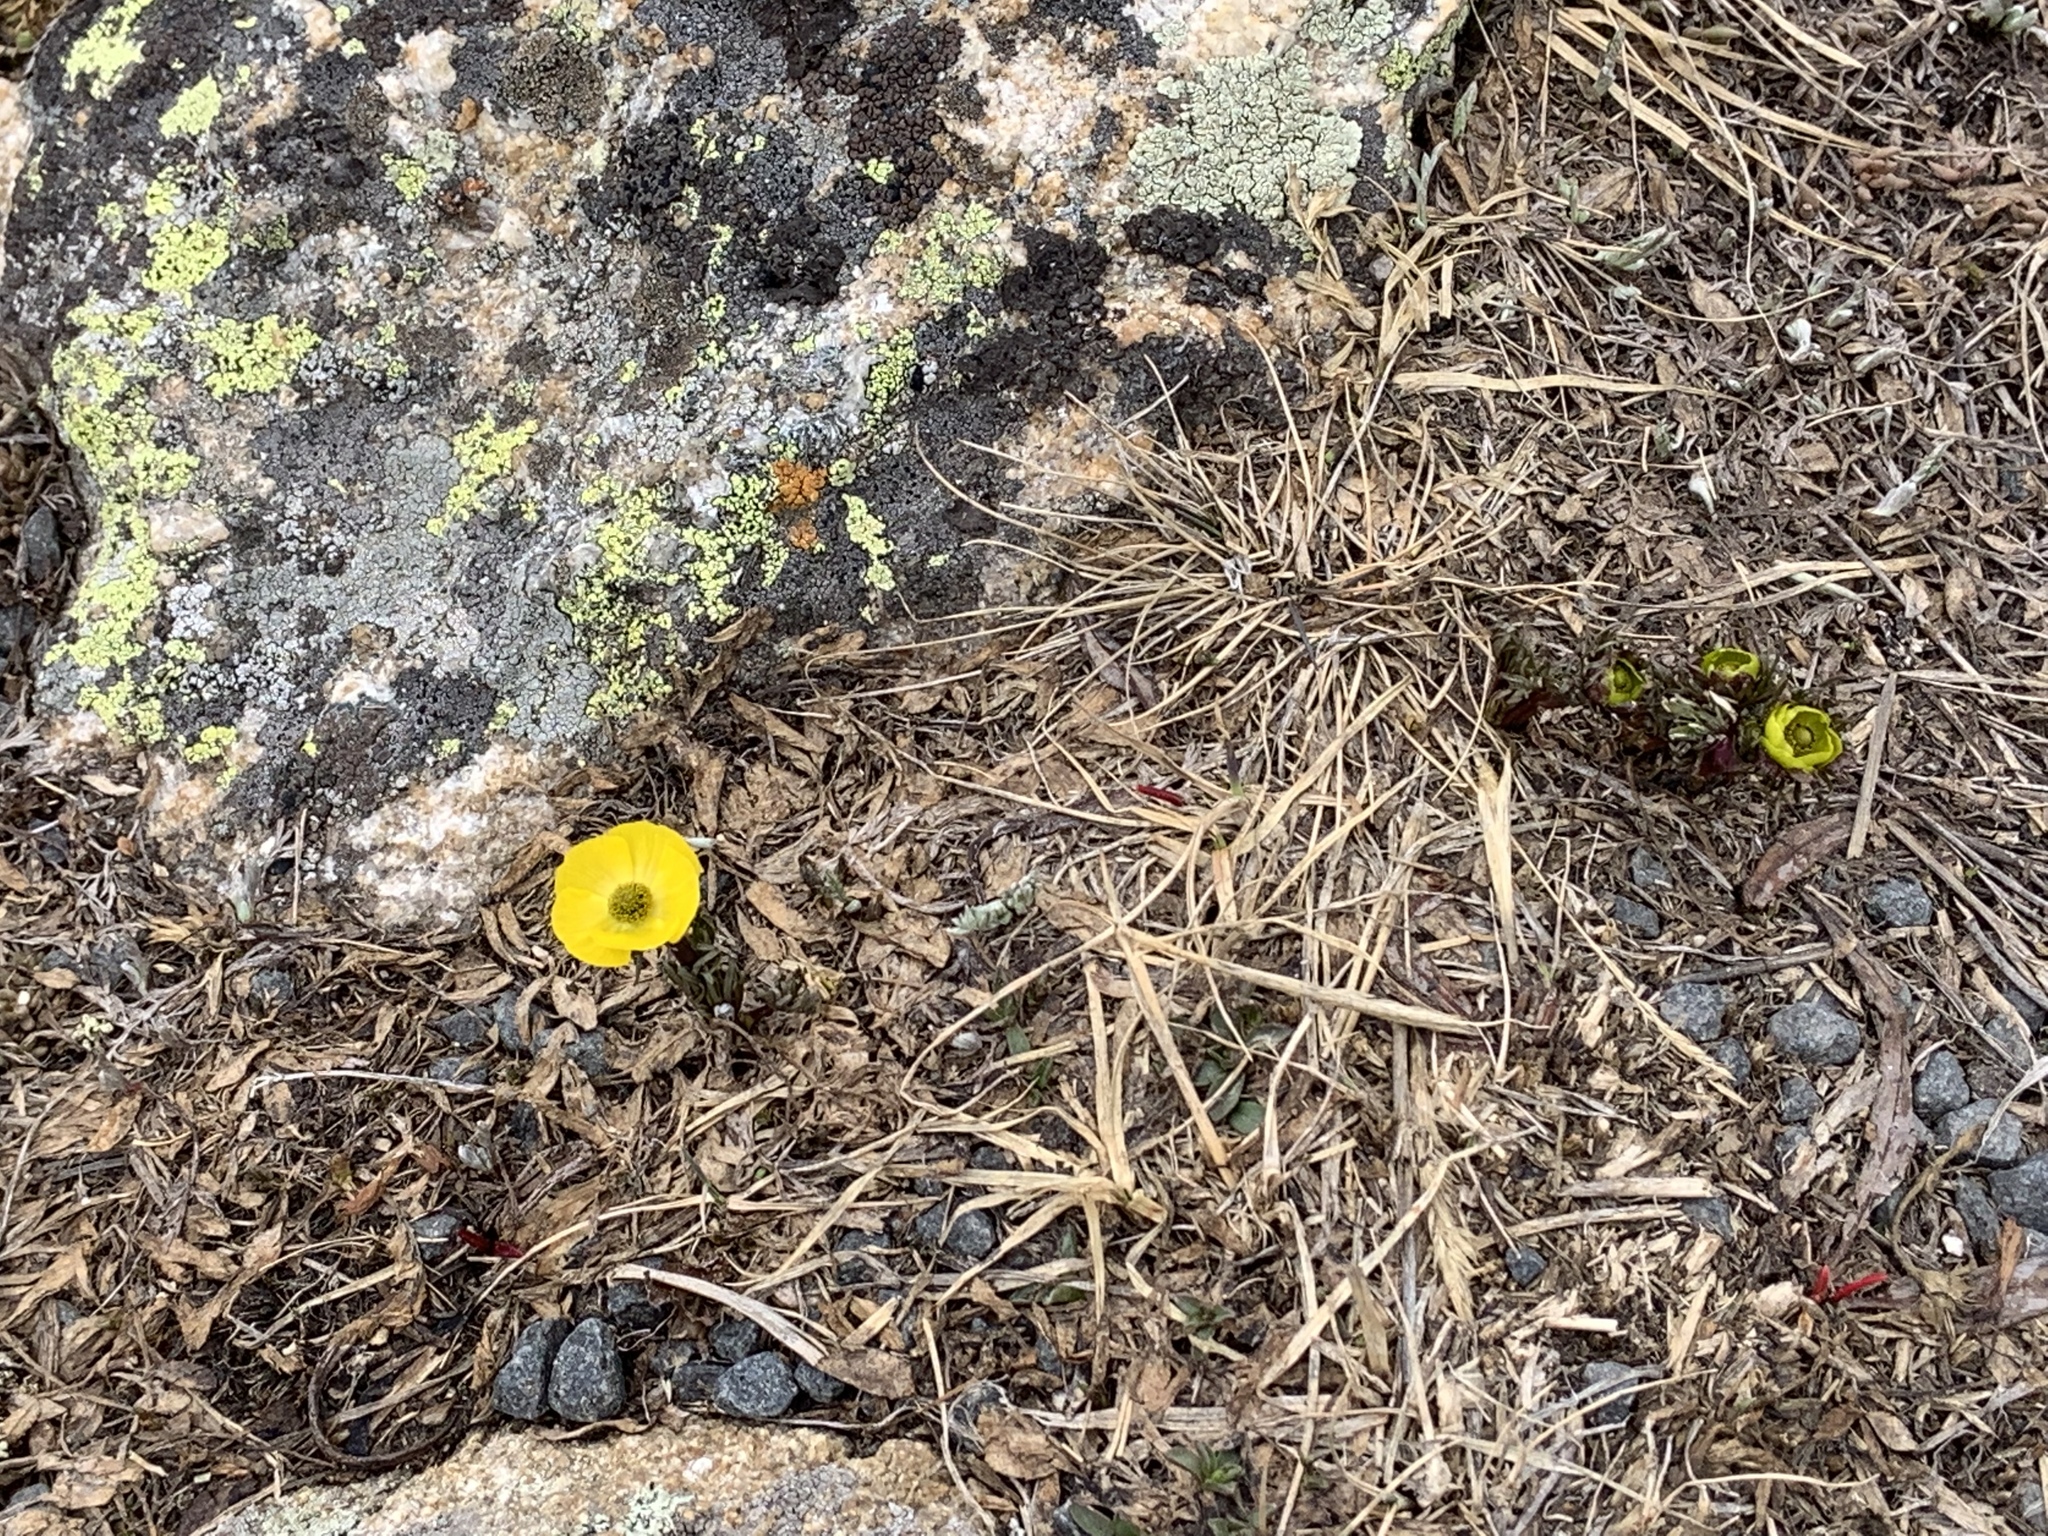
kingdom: Plantae
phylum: Tracheophyta
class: Magnoliopsida
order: Ranunculales
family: Ranunculaceae
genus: Ranunculus
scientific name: Ranunculus adoneus
